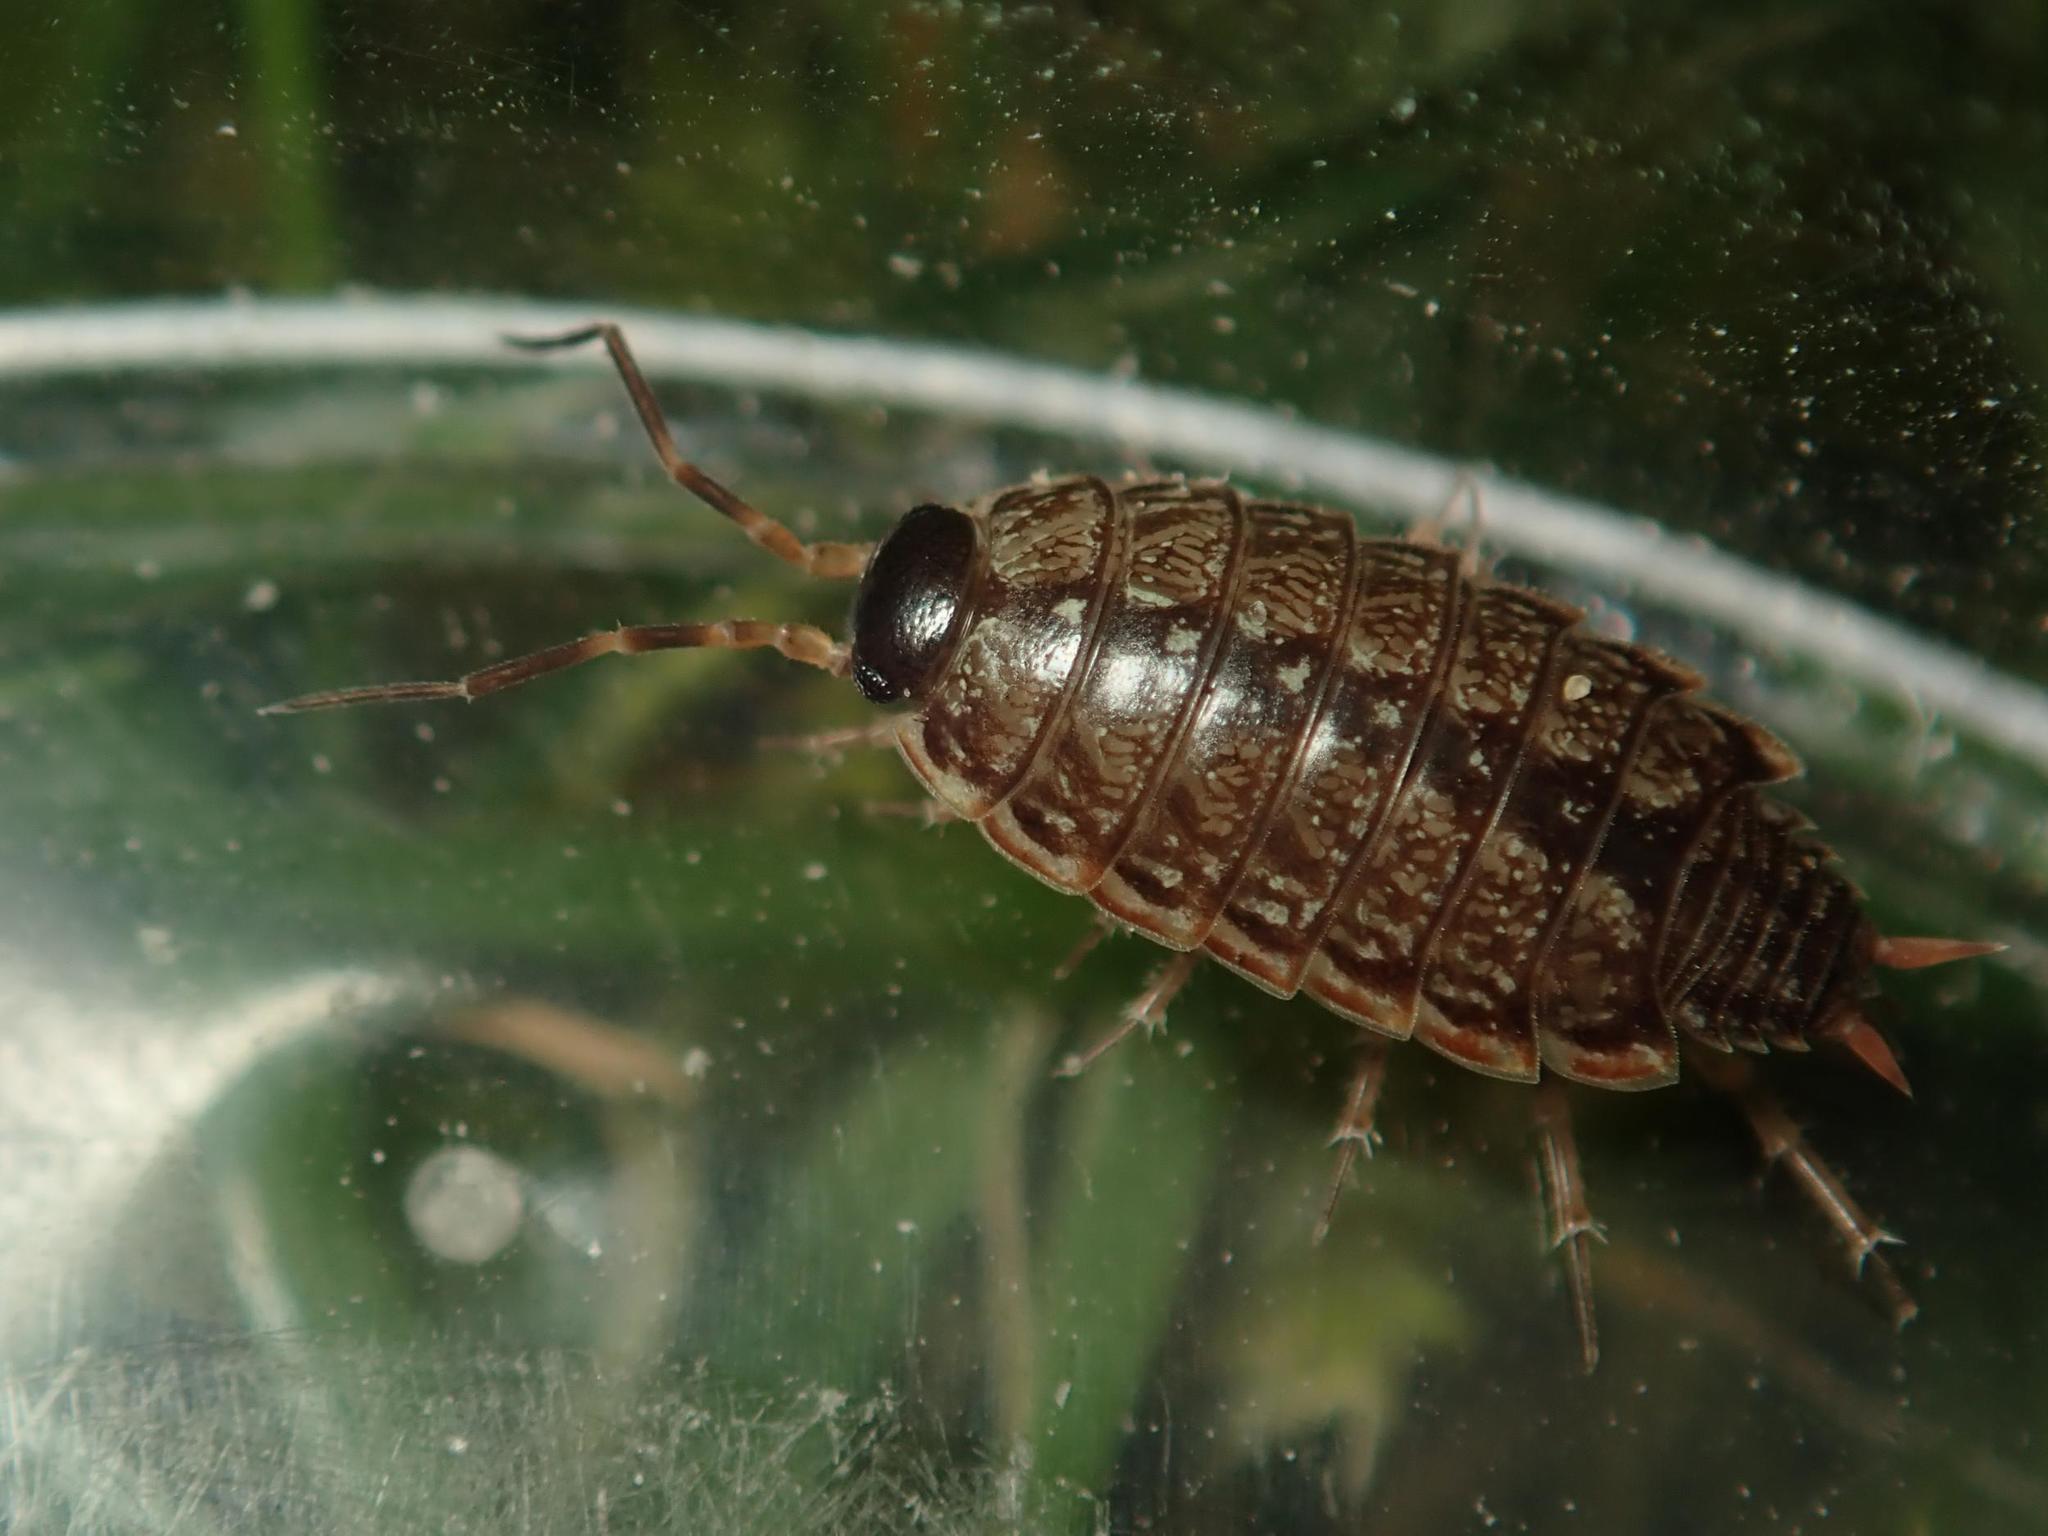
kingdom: Animalia
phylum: Arthropoda
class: Malacostraca
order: Isopoda
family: Philosciidae
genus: Philoscia
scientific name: Philoscia muscorum
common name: Common striped woodlouse
